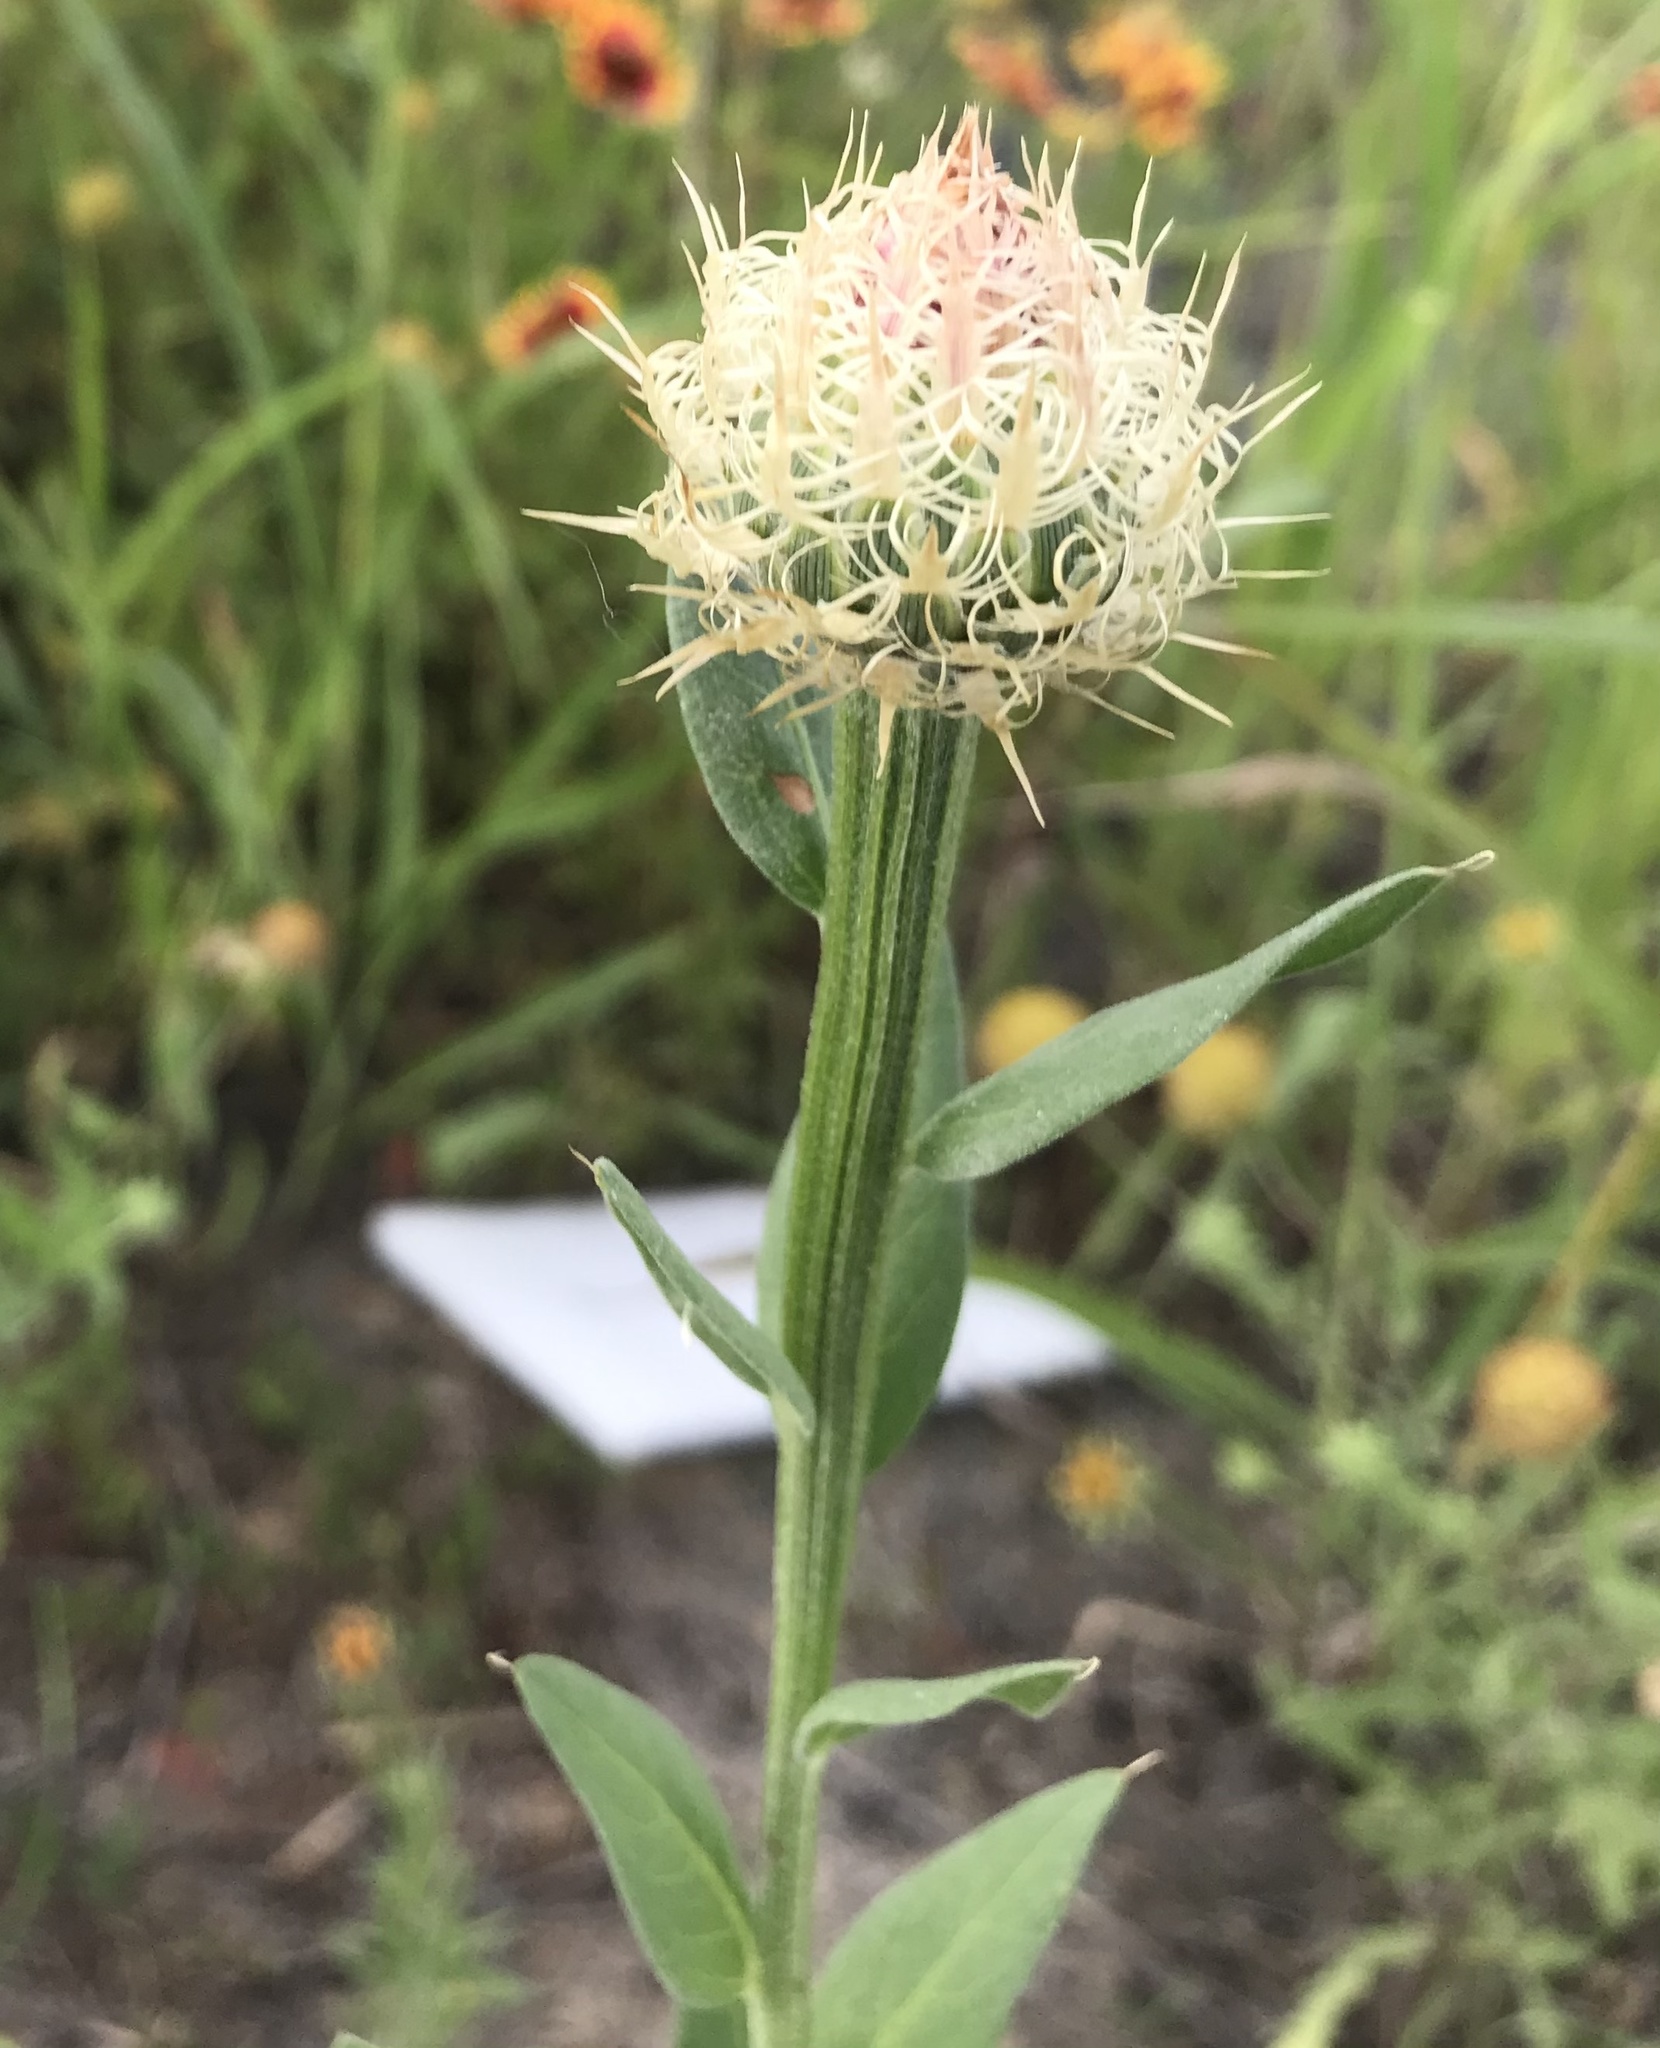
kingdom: Plantae
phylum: Tracheophyta
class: Magnoliopsida
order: Asterales
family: Asteraceae
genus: Plectocephalus
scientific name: Plectocephalus americanus
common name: American basket-flower
